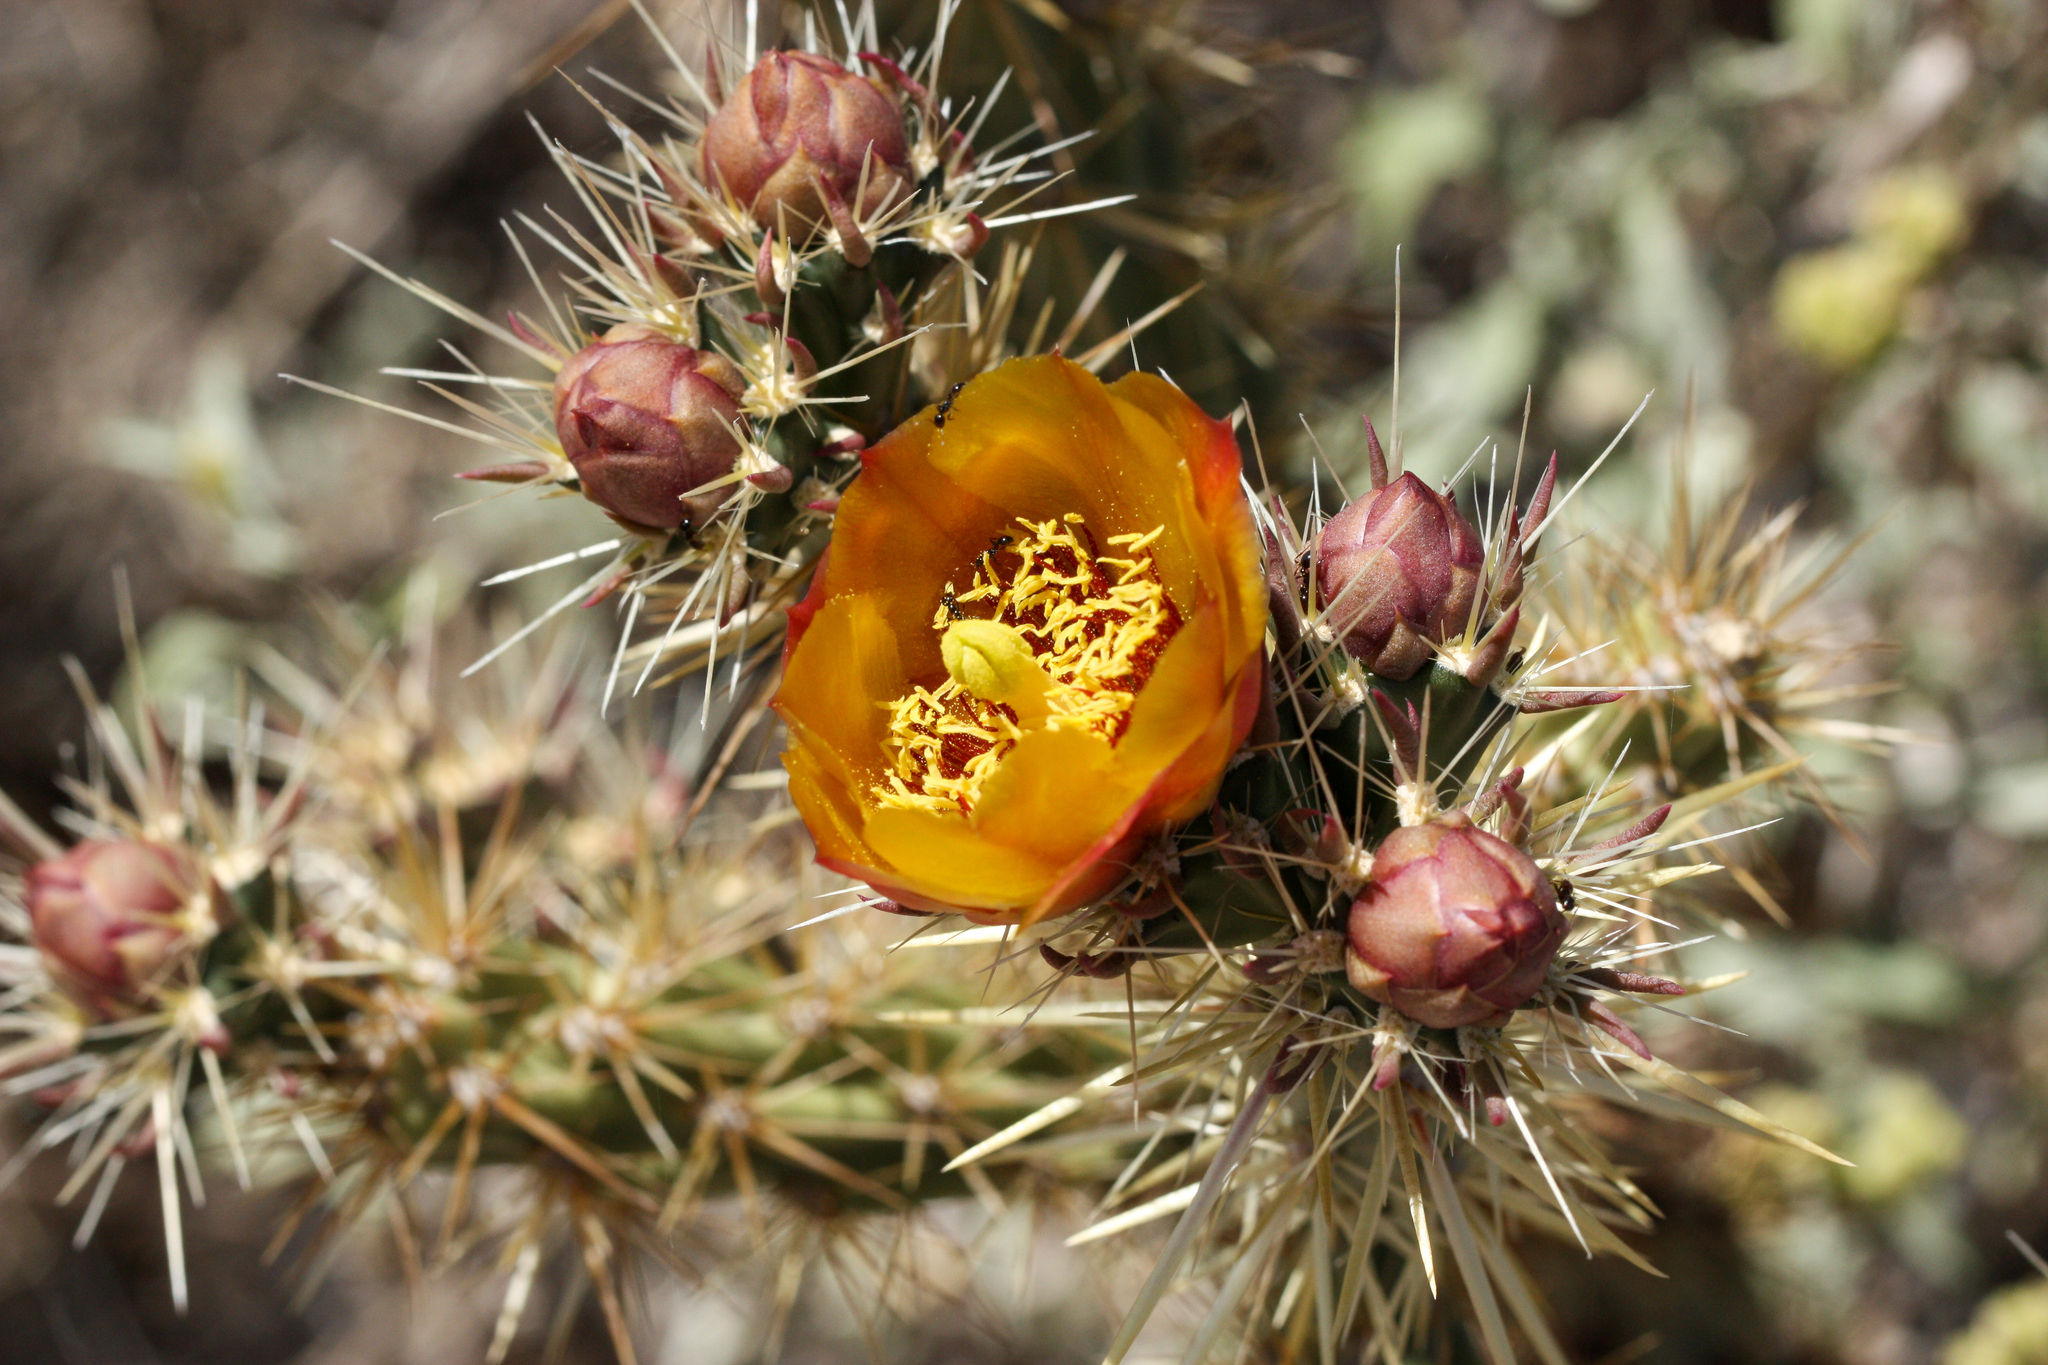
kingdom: Plantae
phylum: Tracheophyta
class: Magnoliopsida
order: Caryophyllales
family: Cactaceae
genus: Cylindropuntia
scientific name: Cylindropuntia acanthocarpa
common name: Buckhorn cholla
